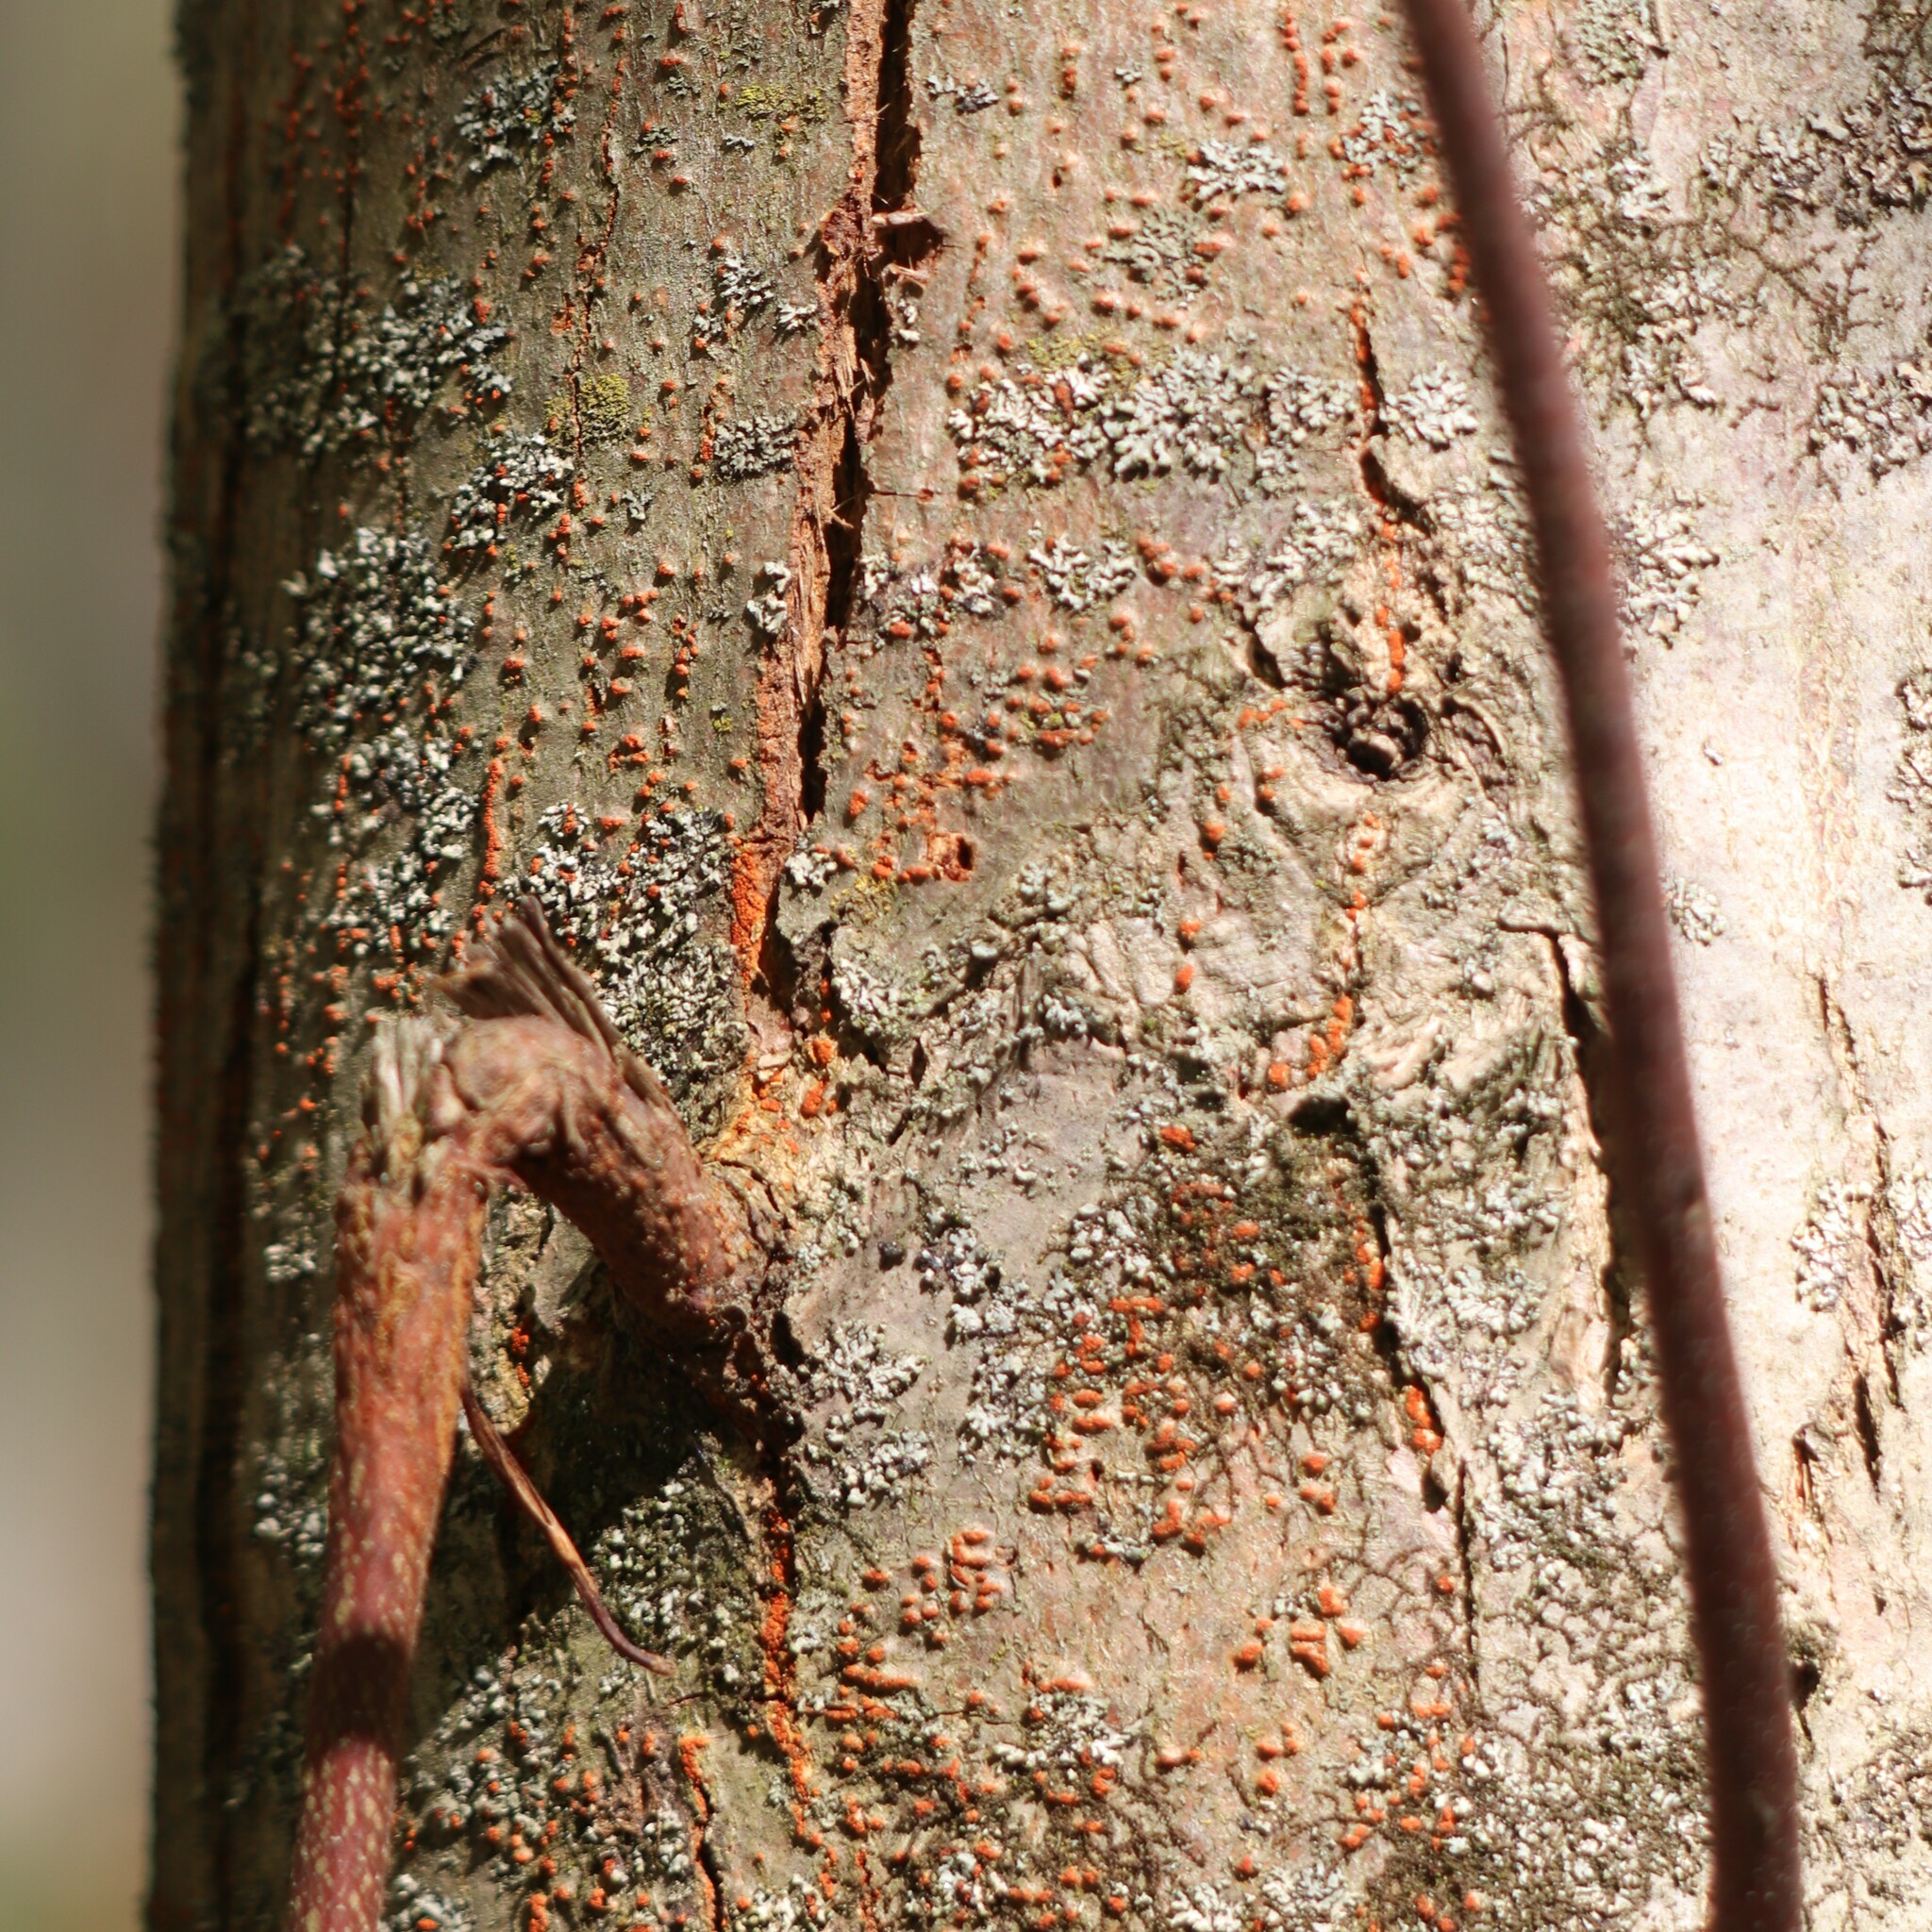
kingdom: Fungi
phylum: Ascomycota
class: Sordariomycetes
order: Diaporthales
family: Cryphonectriaceae
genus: Cryphonectria
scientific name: Cryphonectria parasitica
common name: Chestnut blight
